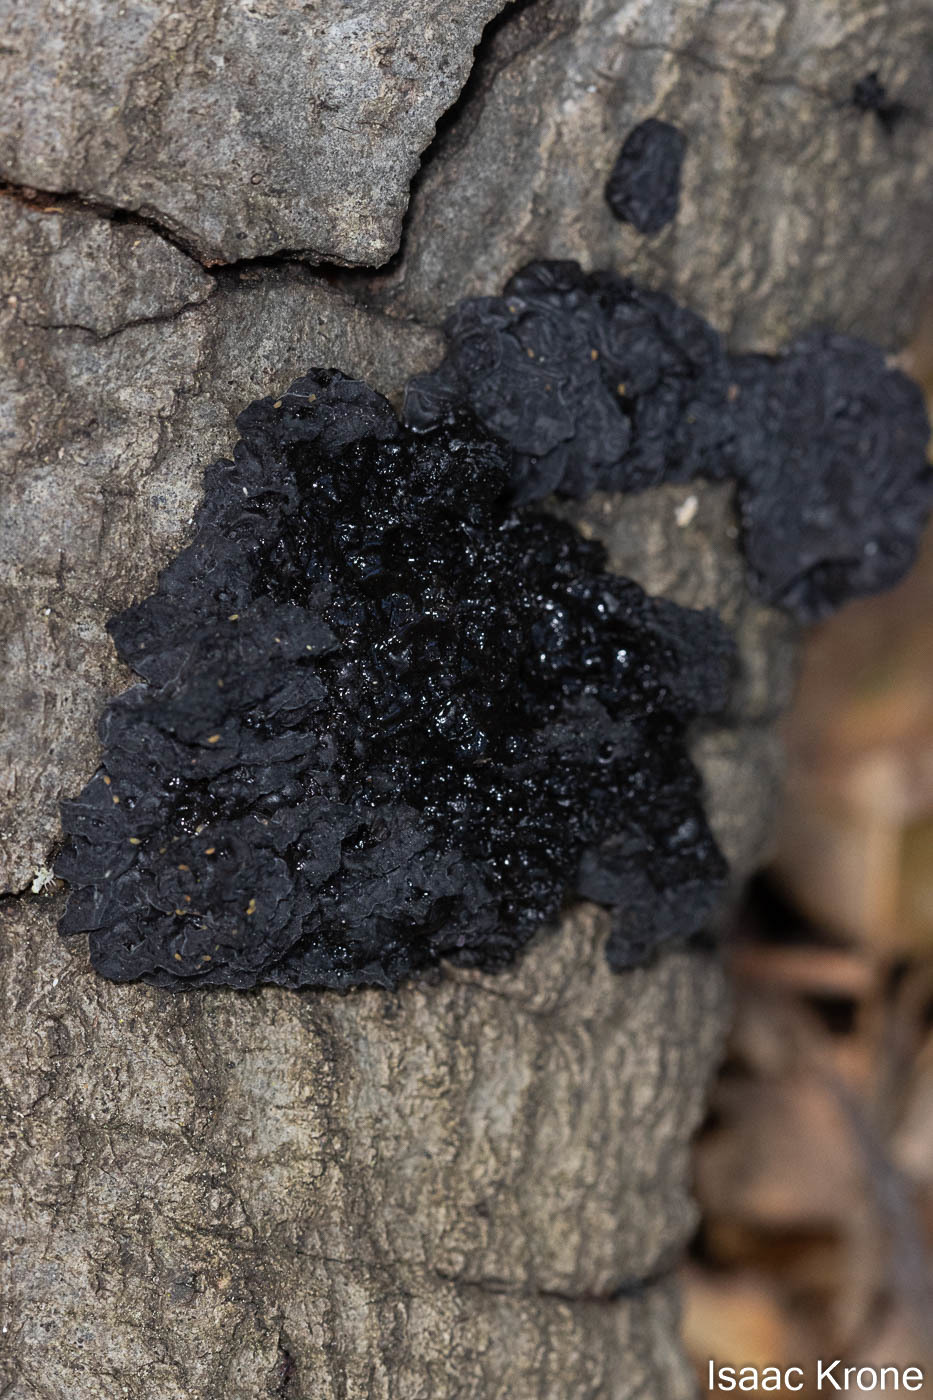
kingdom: Fungi
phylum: Basidiomycota
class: Agaricomycetes
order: Auriculariales
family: Auriculariaceae
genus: Exidia
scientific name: Exidia glandulosa
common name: Witches' butter
